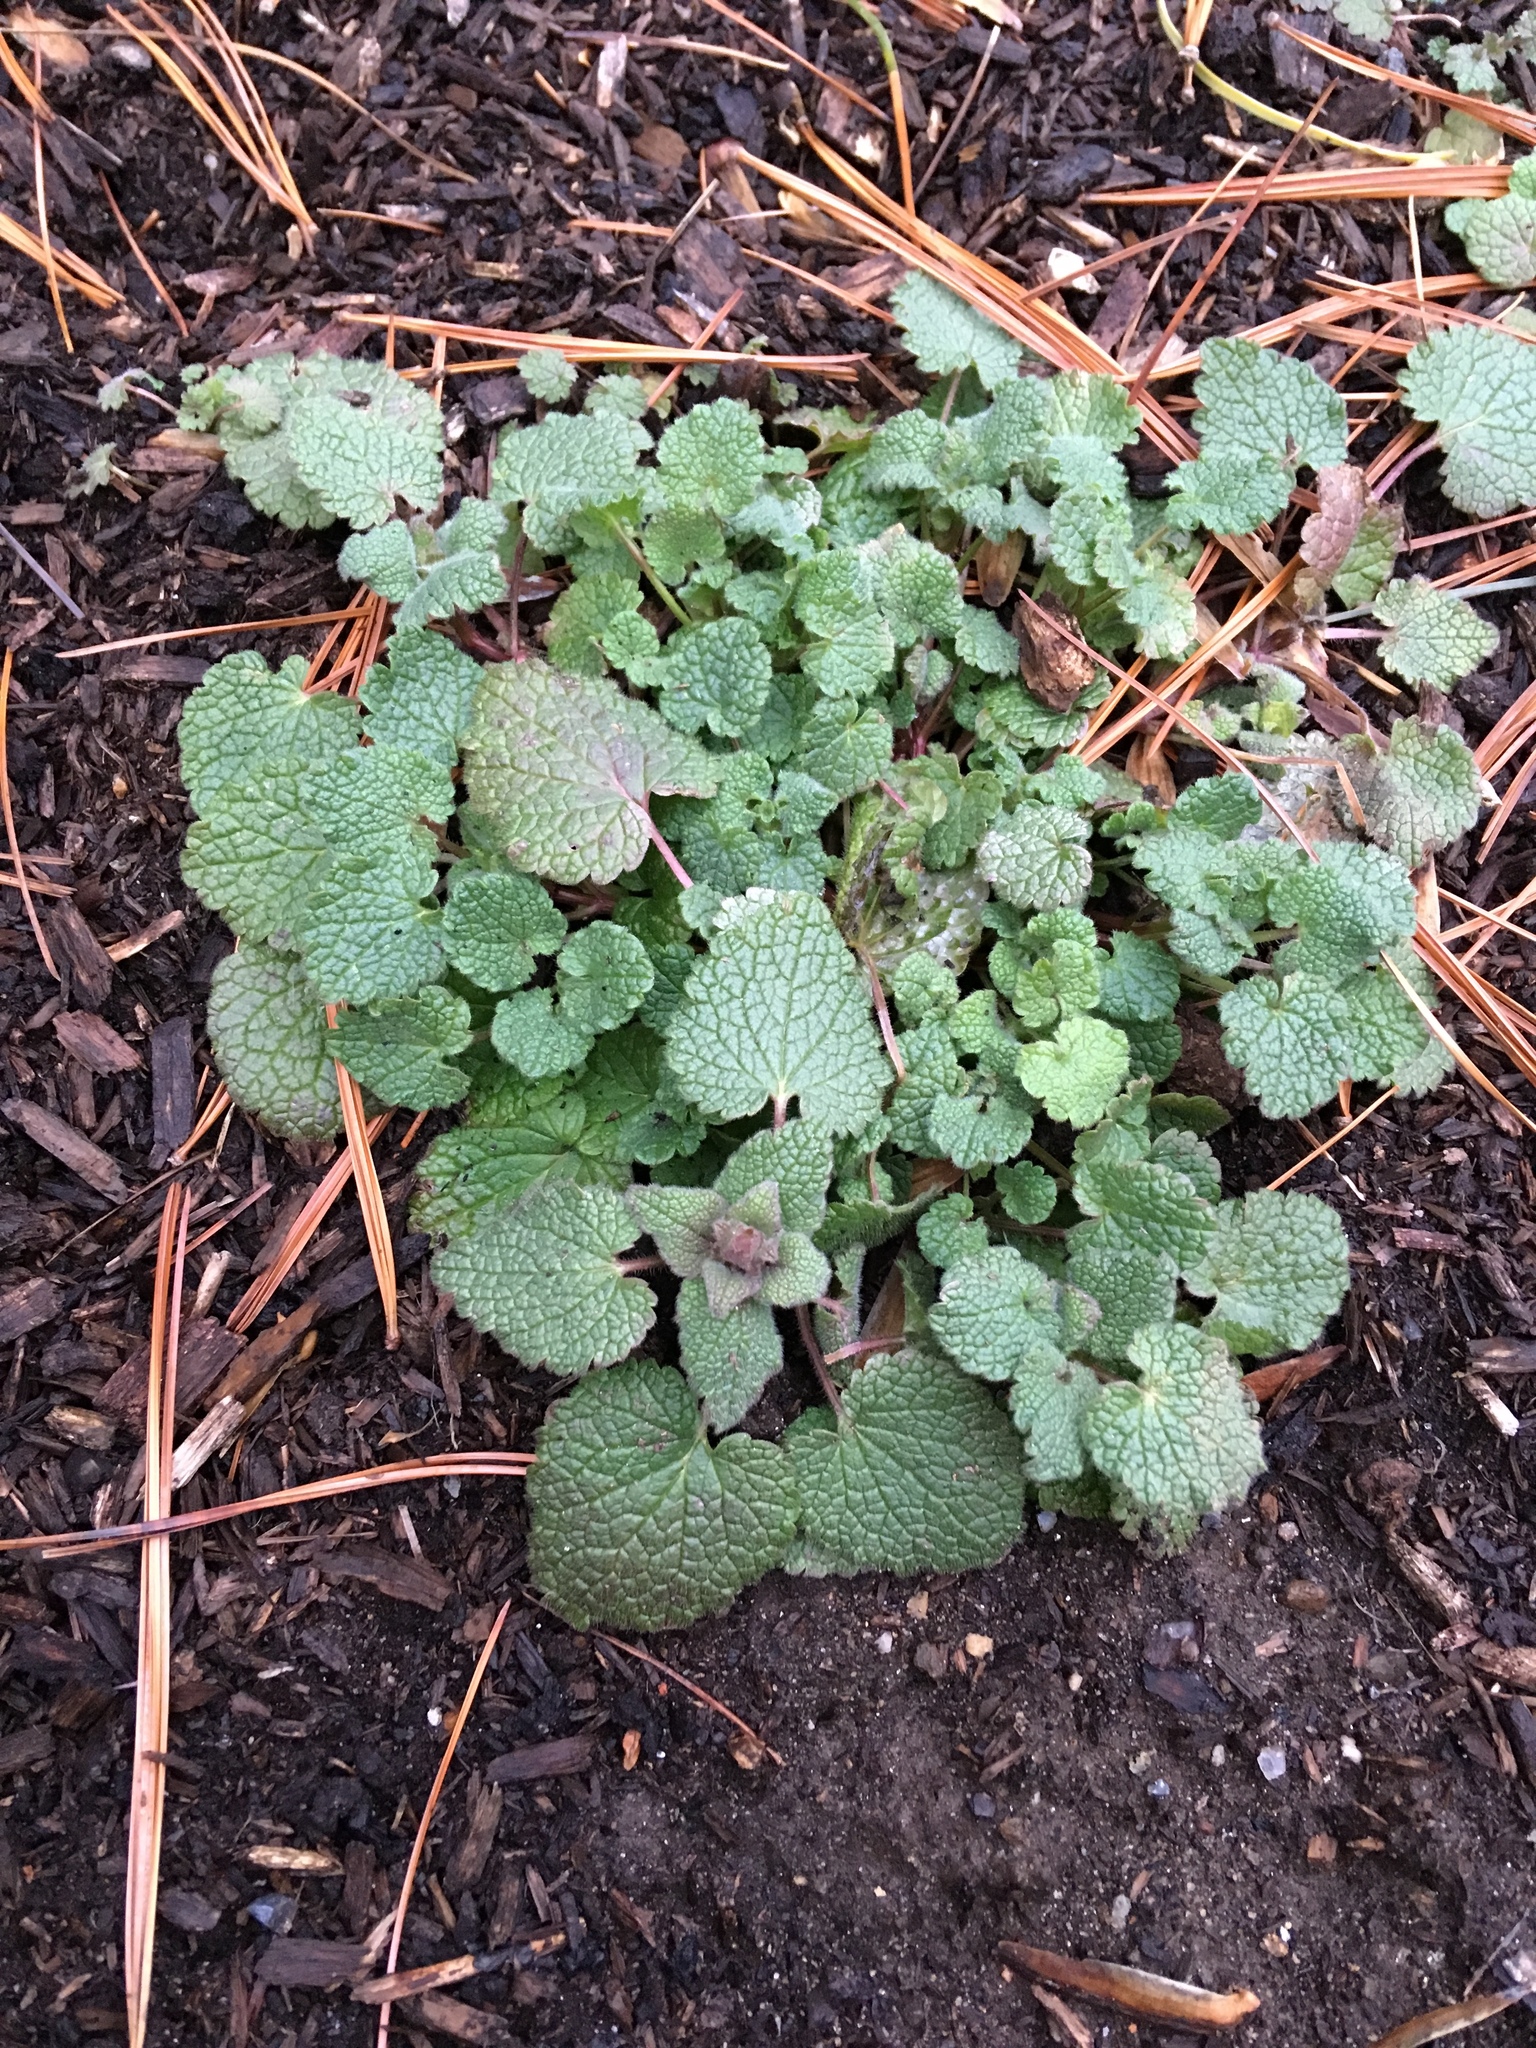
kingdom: Plantae
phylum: Tracheophyta
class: Magnoliopsida
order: Lamiales
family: Lamiaceae
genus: Lamium
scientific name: Lamium purpureum
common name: Red dead-nettle
